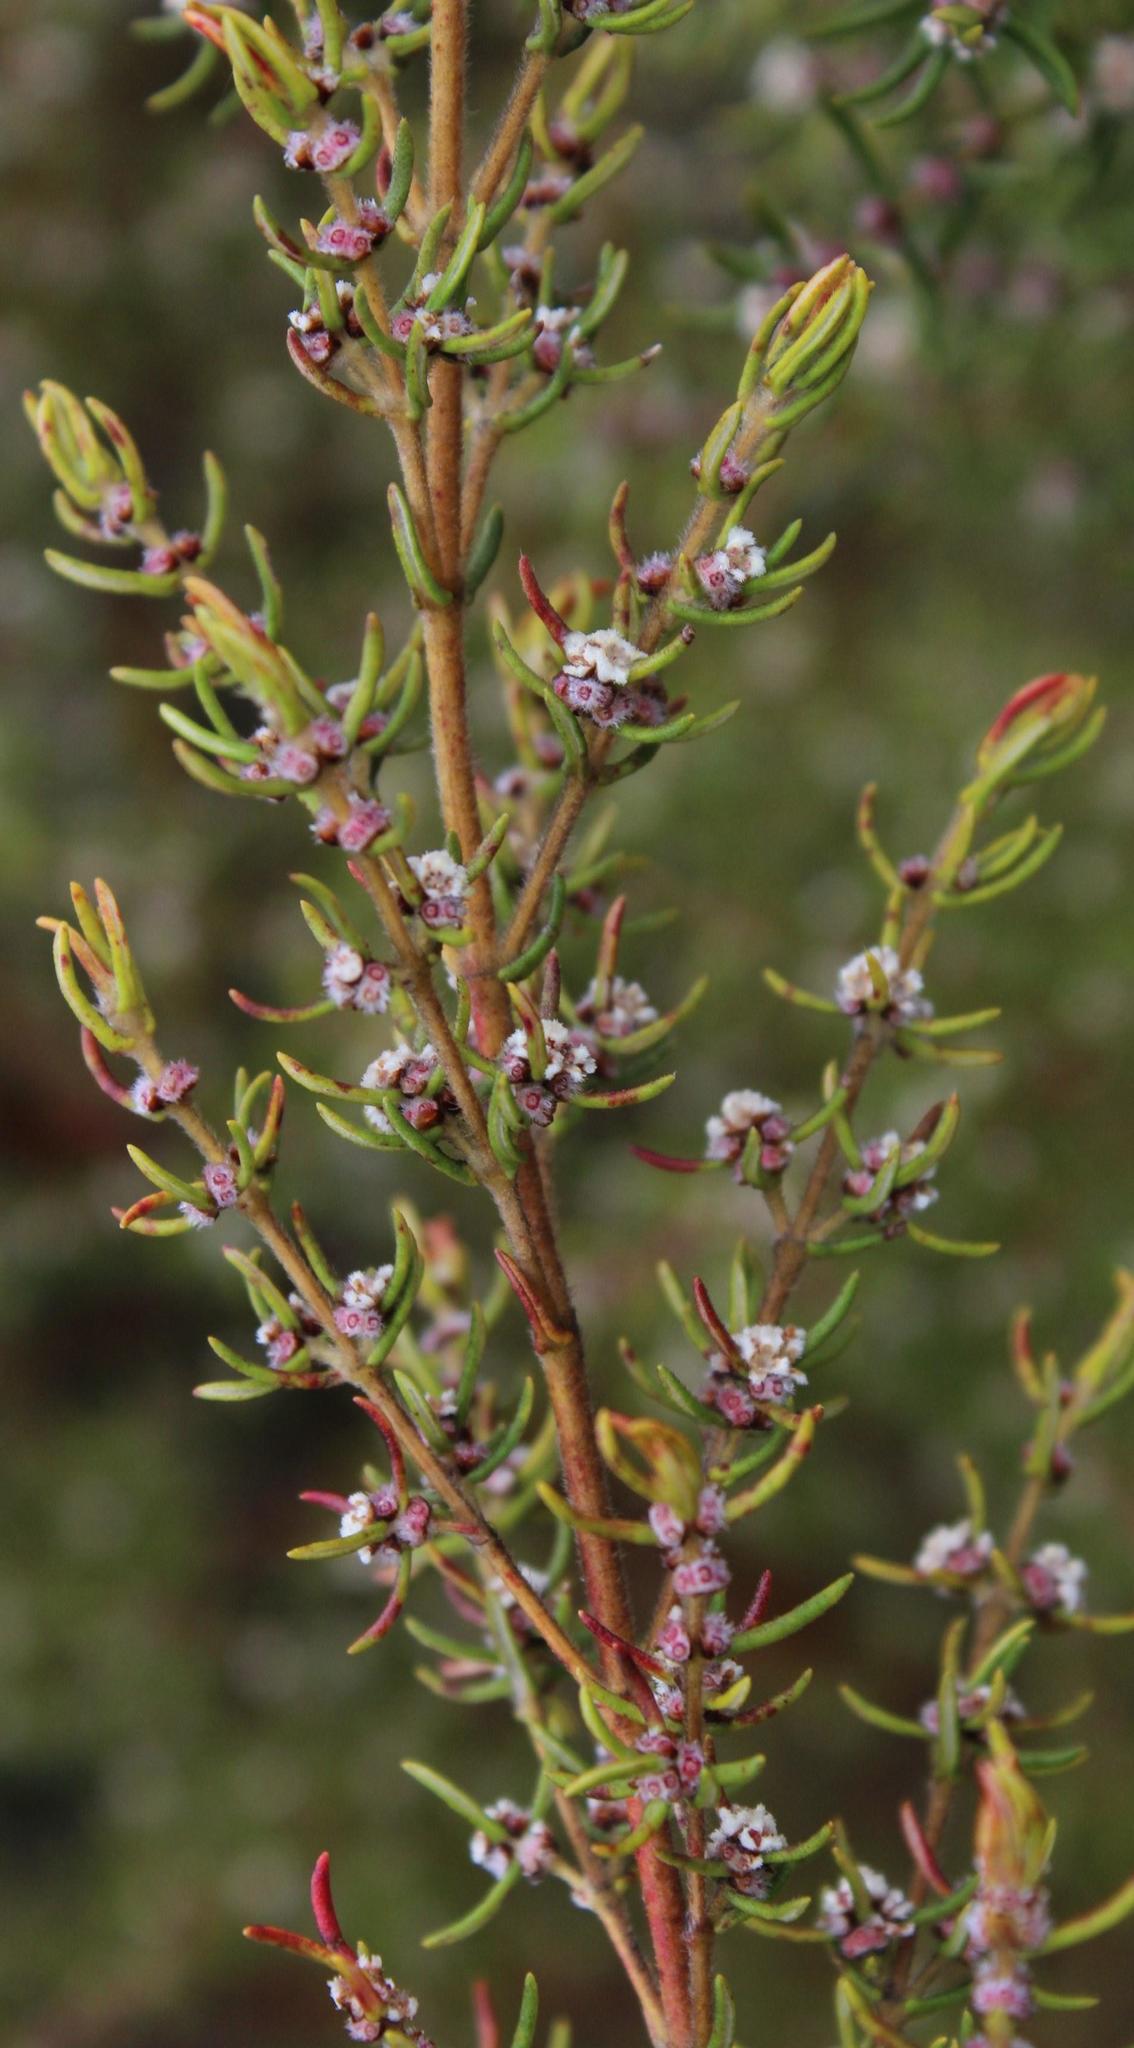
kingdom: Plantae
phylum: Tracheophyta
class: Magnoliopsida
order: Cornales
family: Grubbiaceae
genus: Grubbia
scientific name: Grubbia rosmarinifolia
